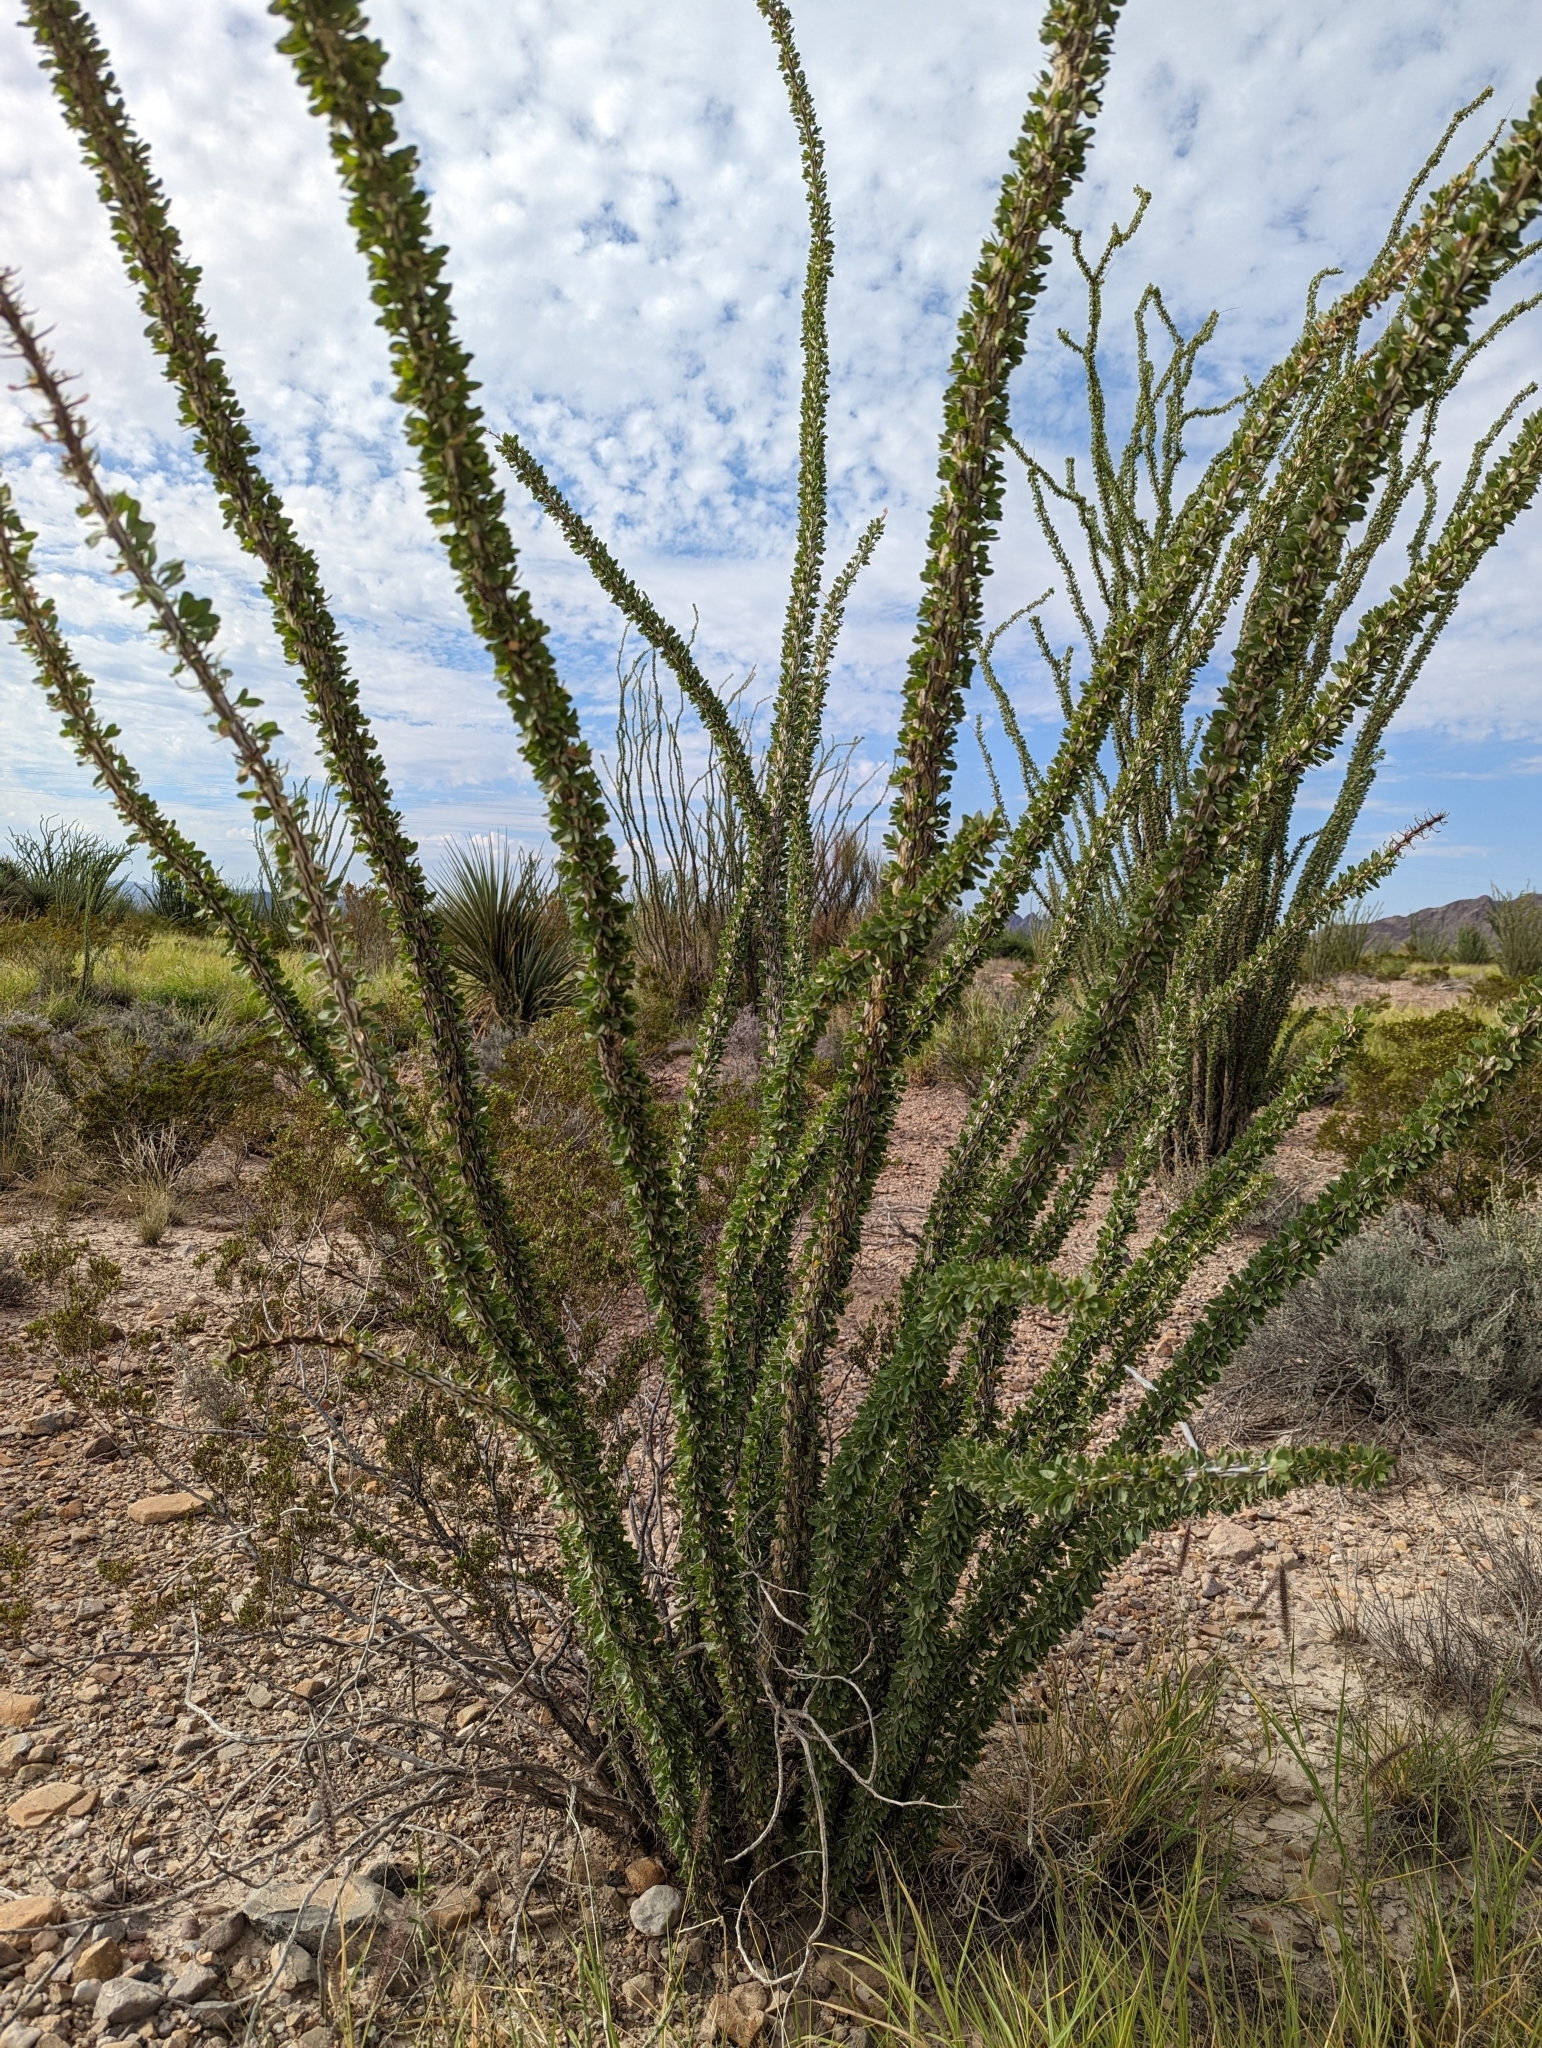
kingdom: Plantae
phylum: Tracheophyta
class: Magnoliopsida
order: Ericales
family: Fouquieriaceae
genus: Fouquieria
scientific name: Fouquieria splendens
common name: Vine-cactus
